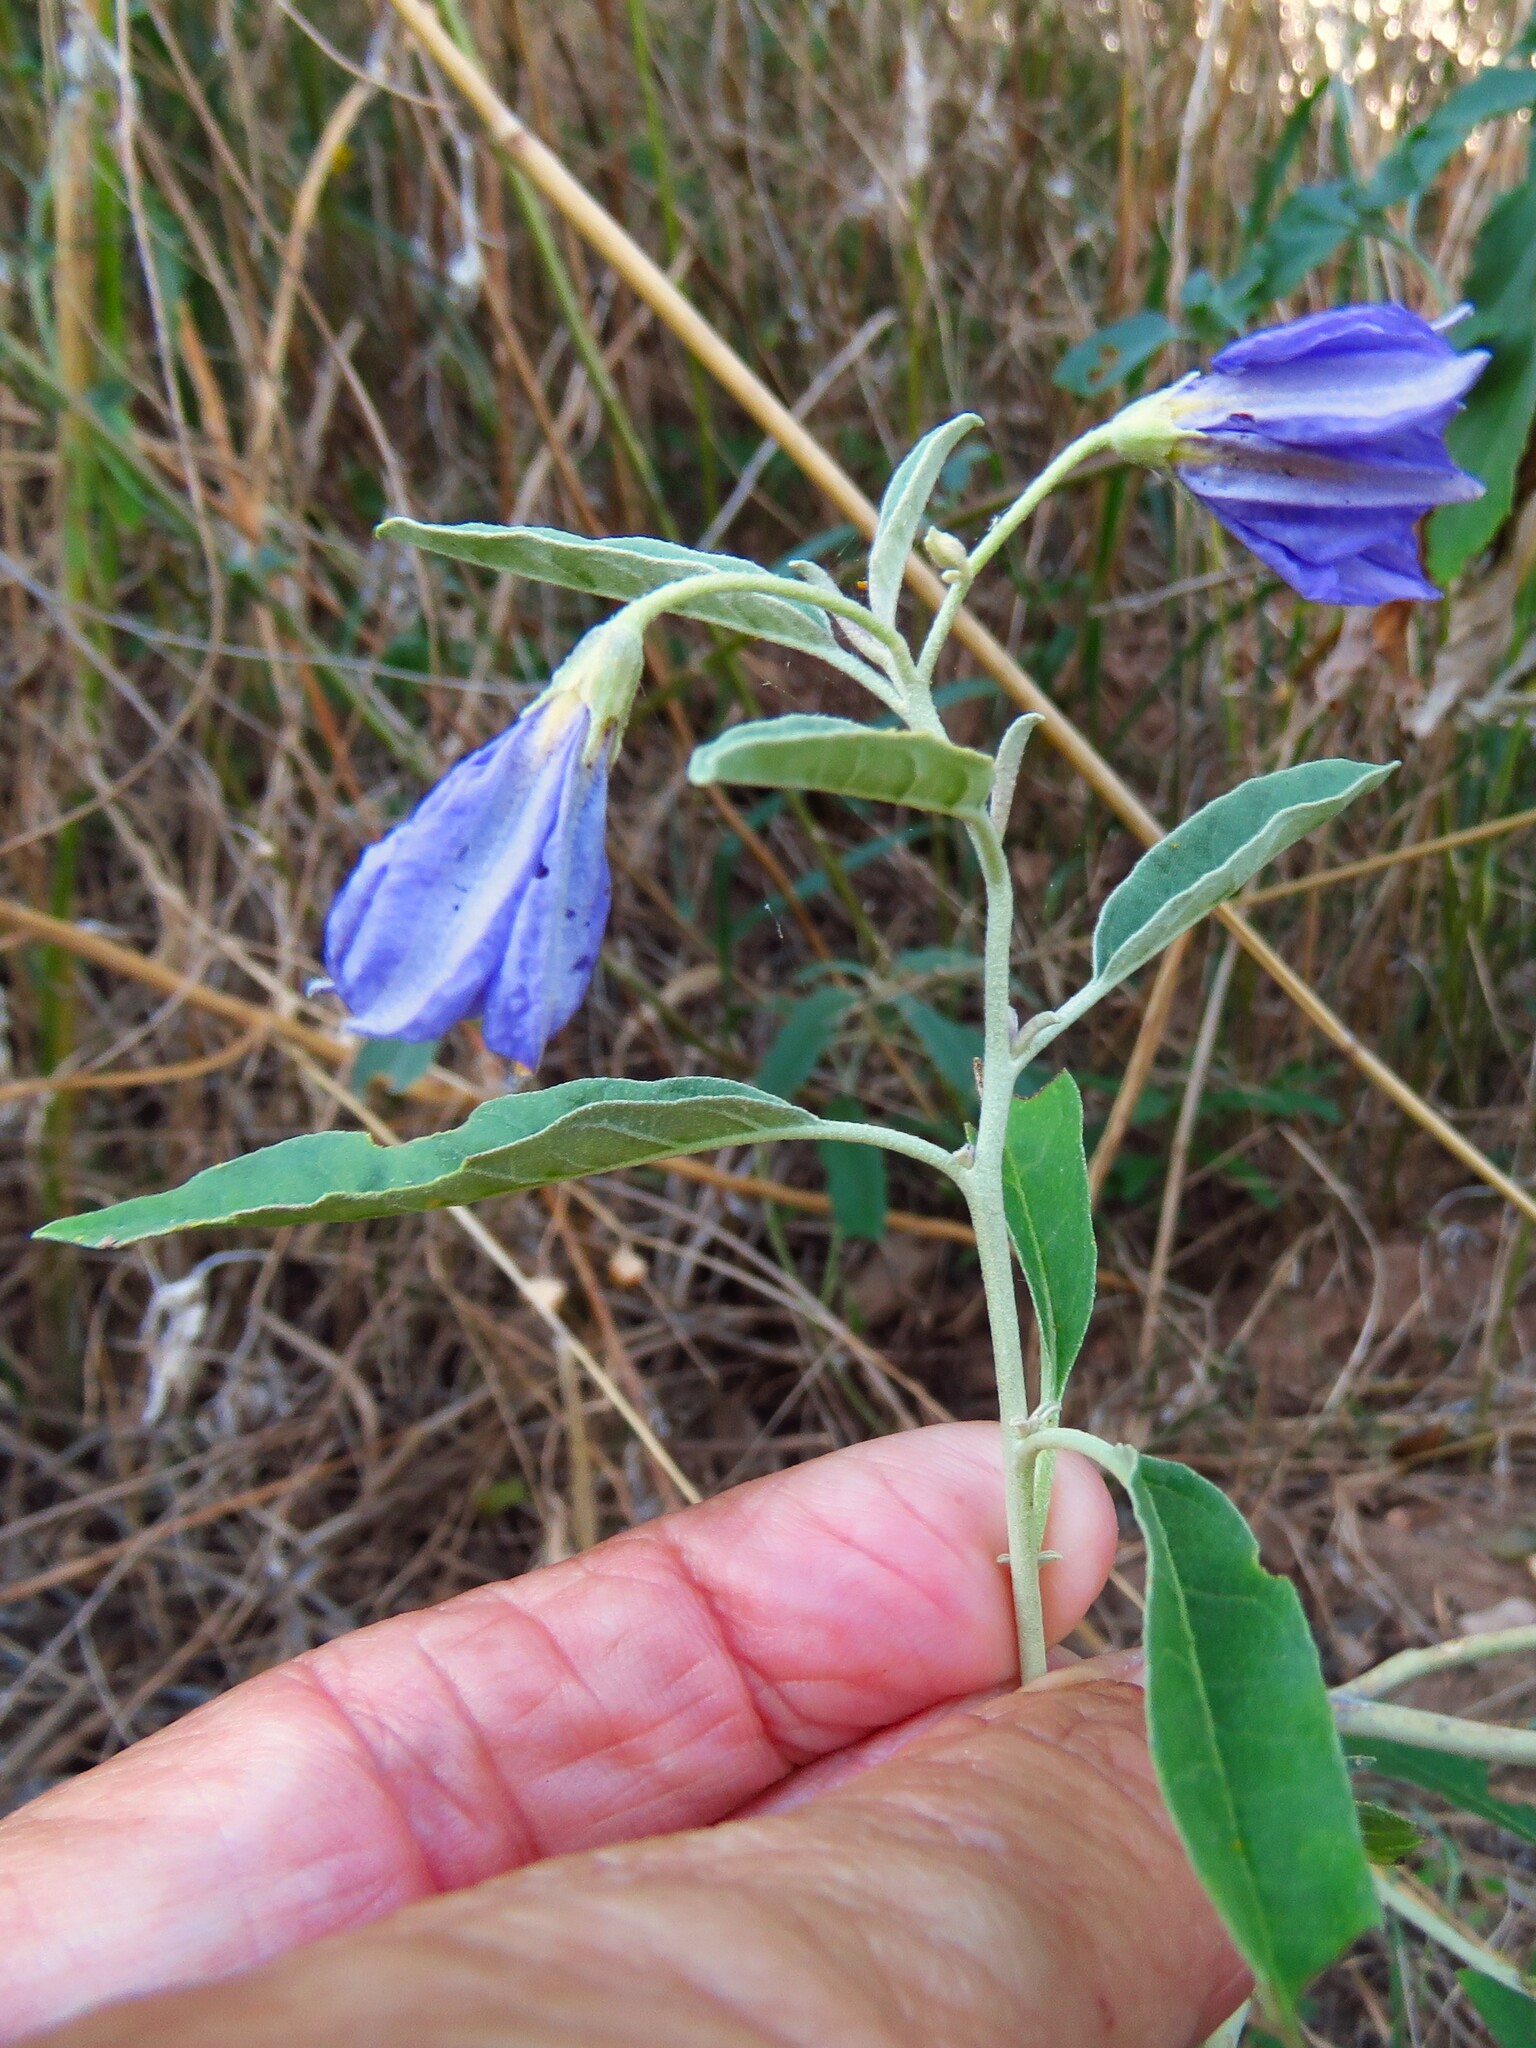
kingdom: Plantae
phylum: Tracheophyta
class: Magnoliopsida
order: Solanales
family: Solanaceae
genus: Solanum
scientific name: Solanum elaeagnifolium
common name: Silverleaf nightshade
